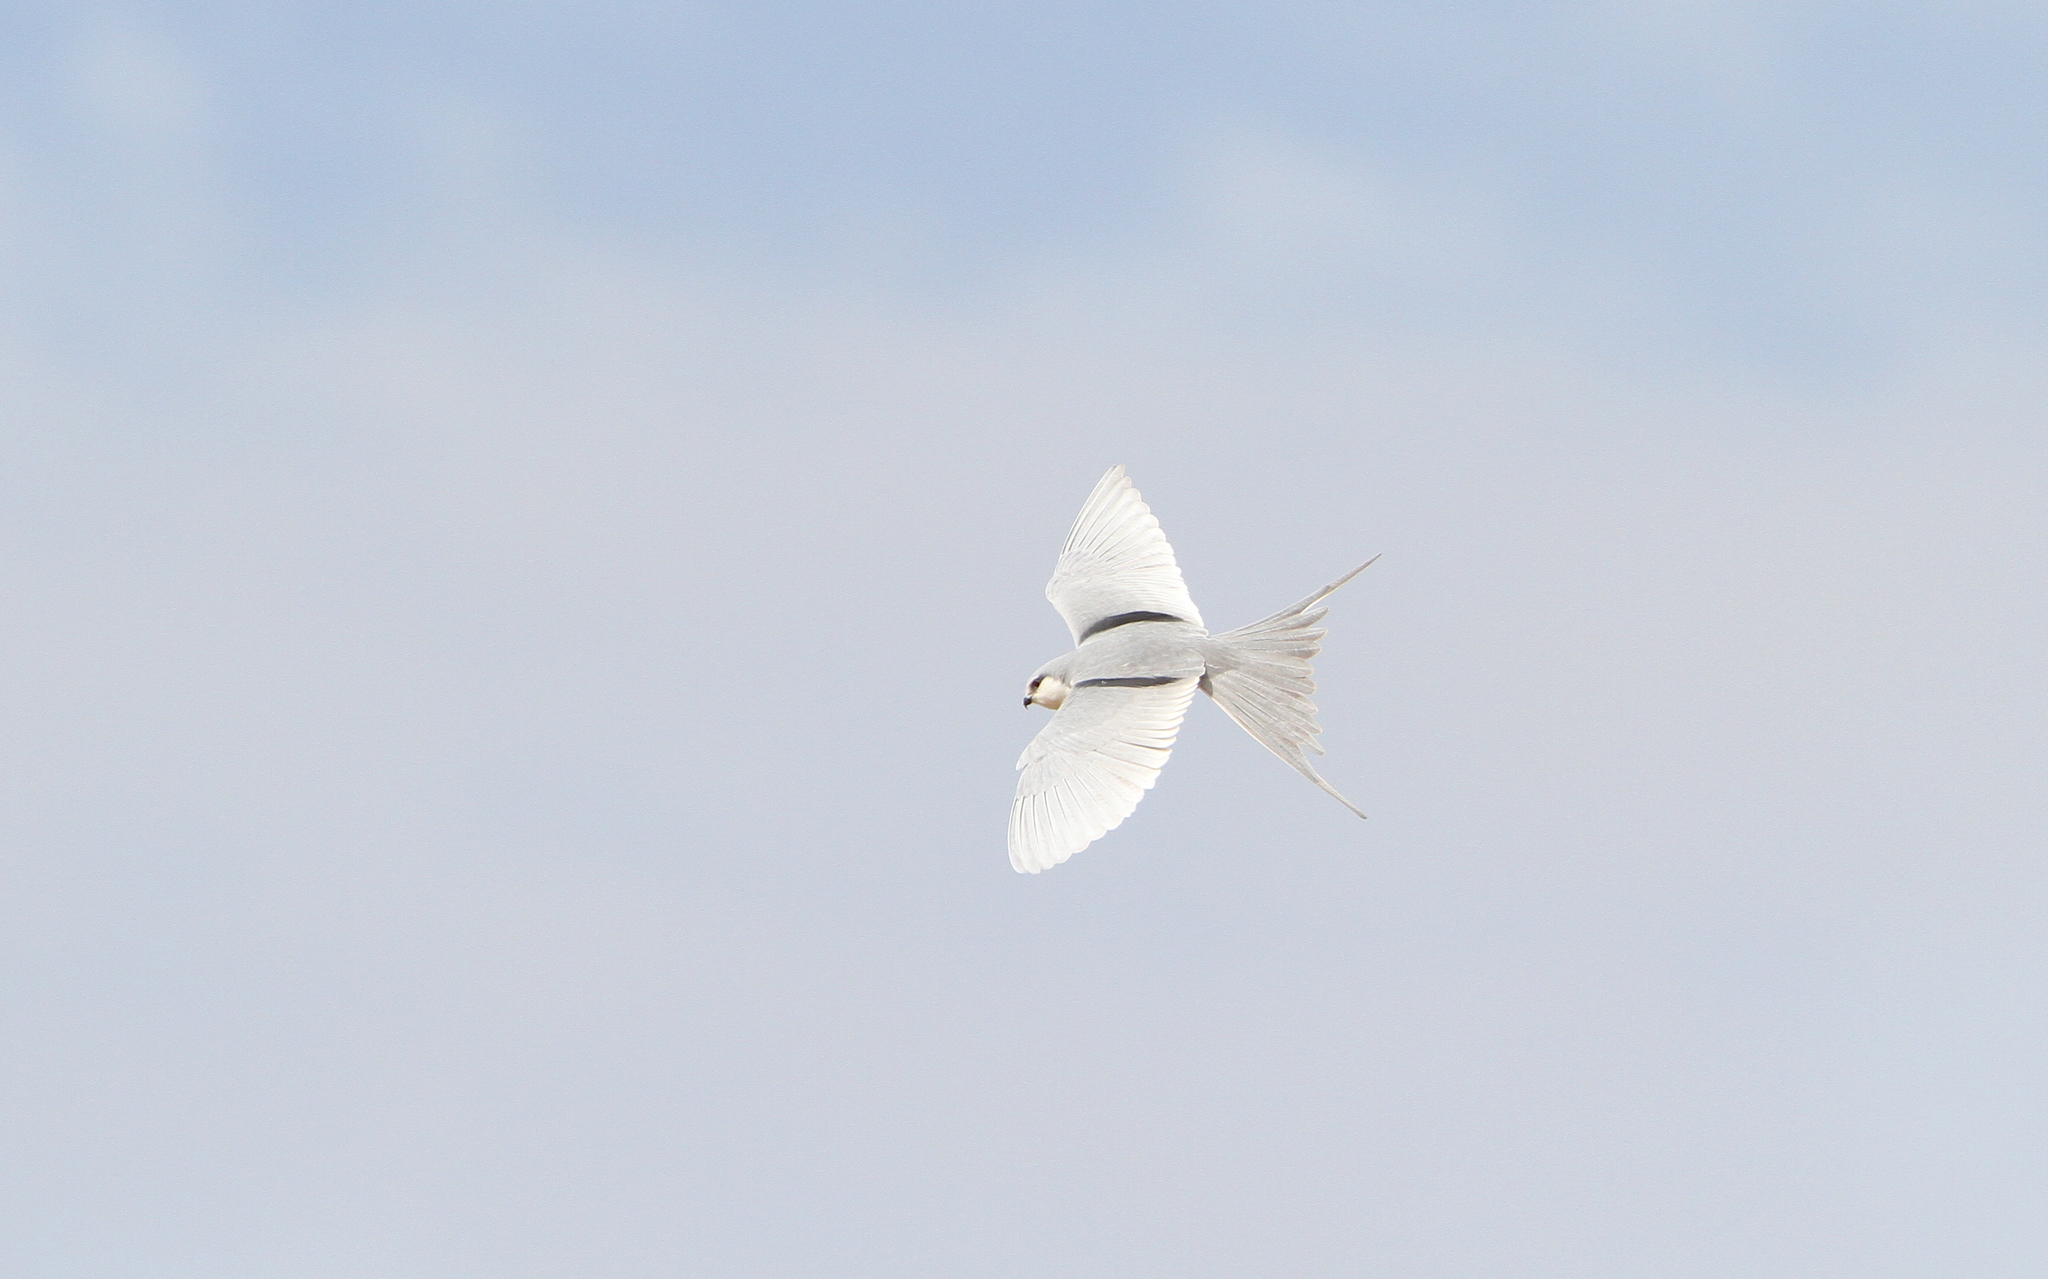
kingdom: Animalia
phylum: Chordata
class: Aves
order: Accipitriformes
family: Accipitridae
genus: Chelictinia
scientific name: Chelictinia riocourii
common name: Scissor-tailed kite
